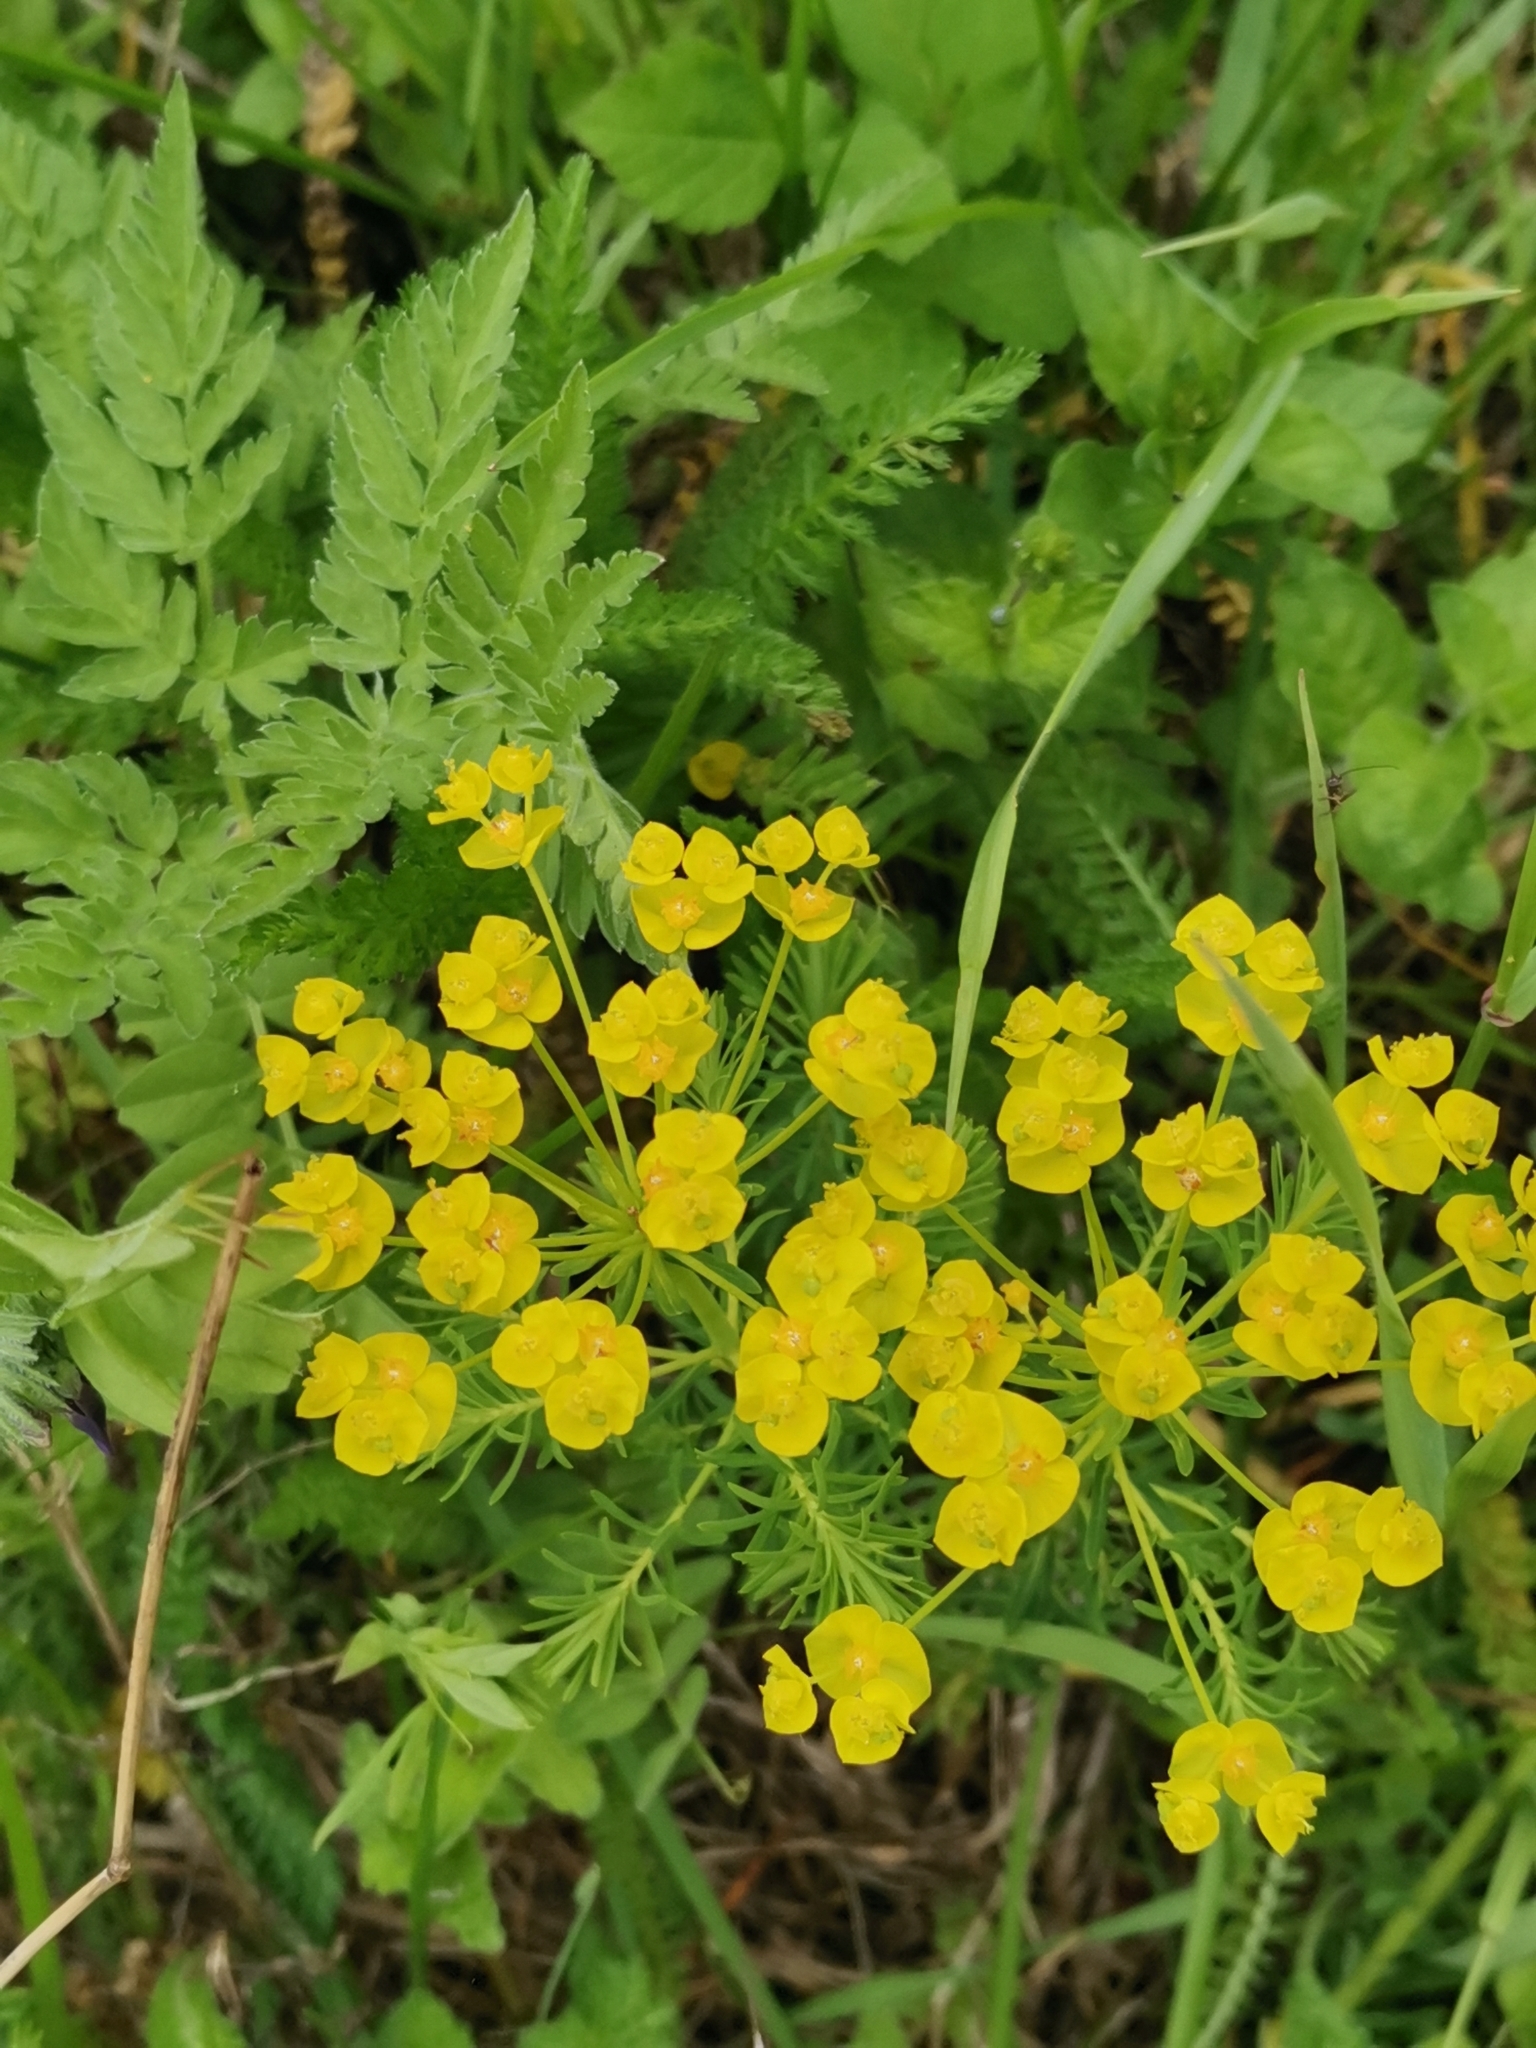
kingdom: Plantae
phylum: Tracheophyta
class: Magnoliopsida
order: Malpighiales
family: Euphorbiaceae
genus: Euphorbia
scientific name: Euphorbia cyparissias
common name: Cypress spurge
